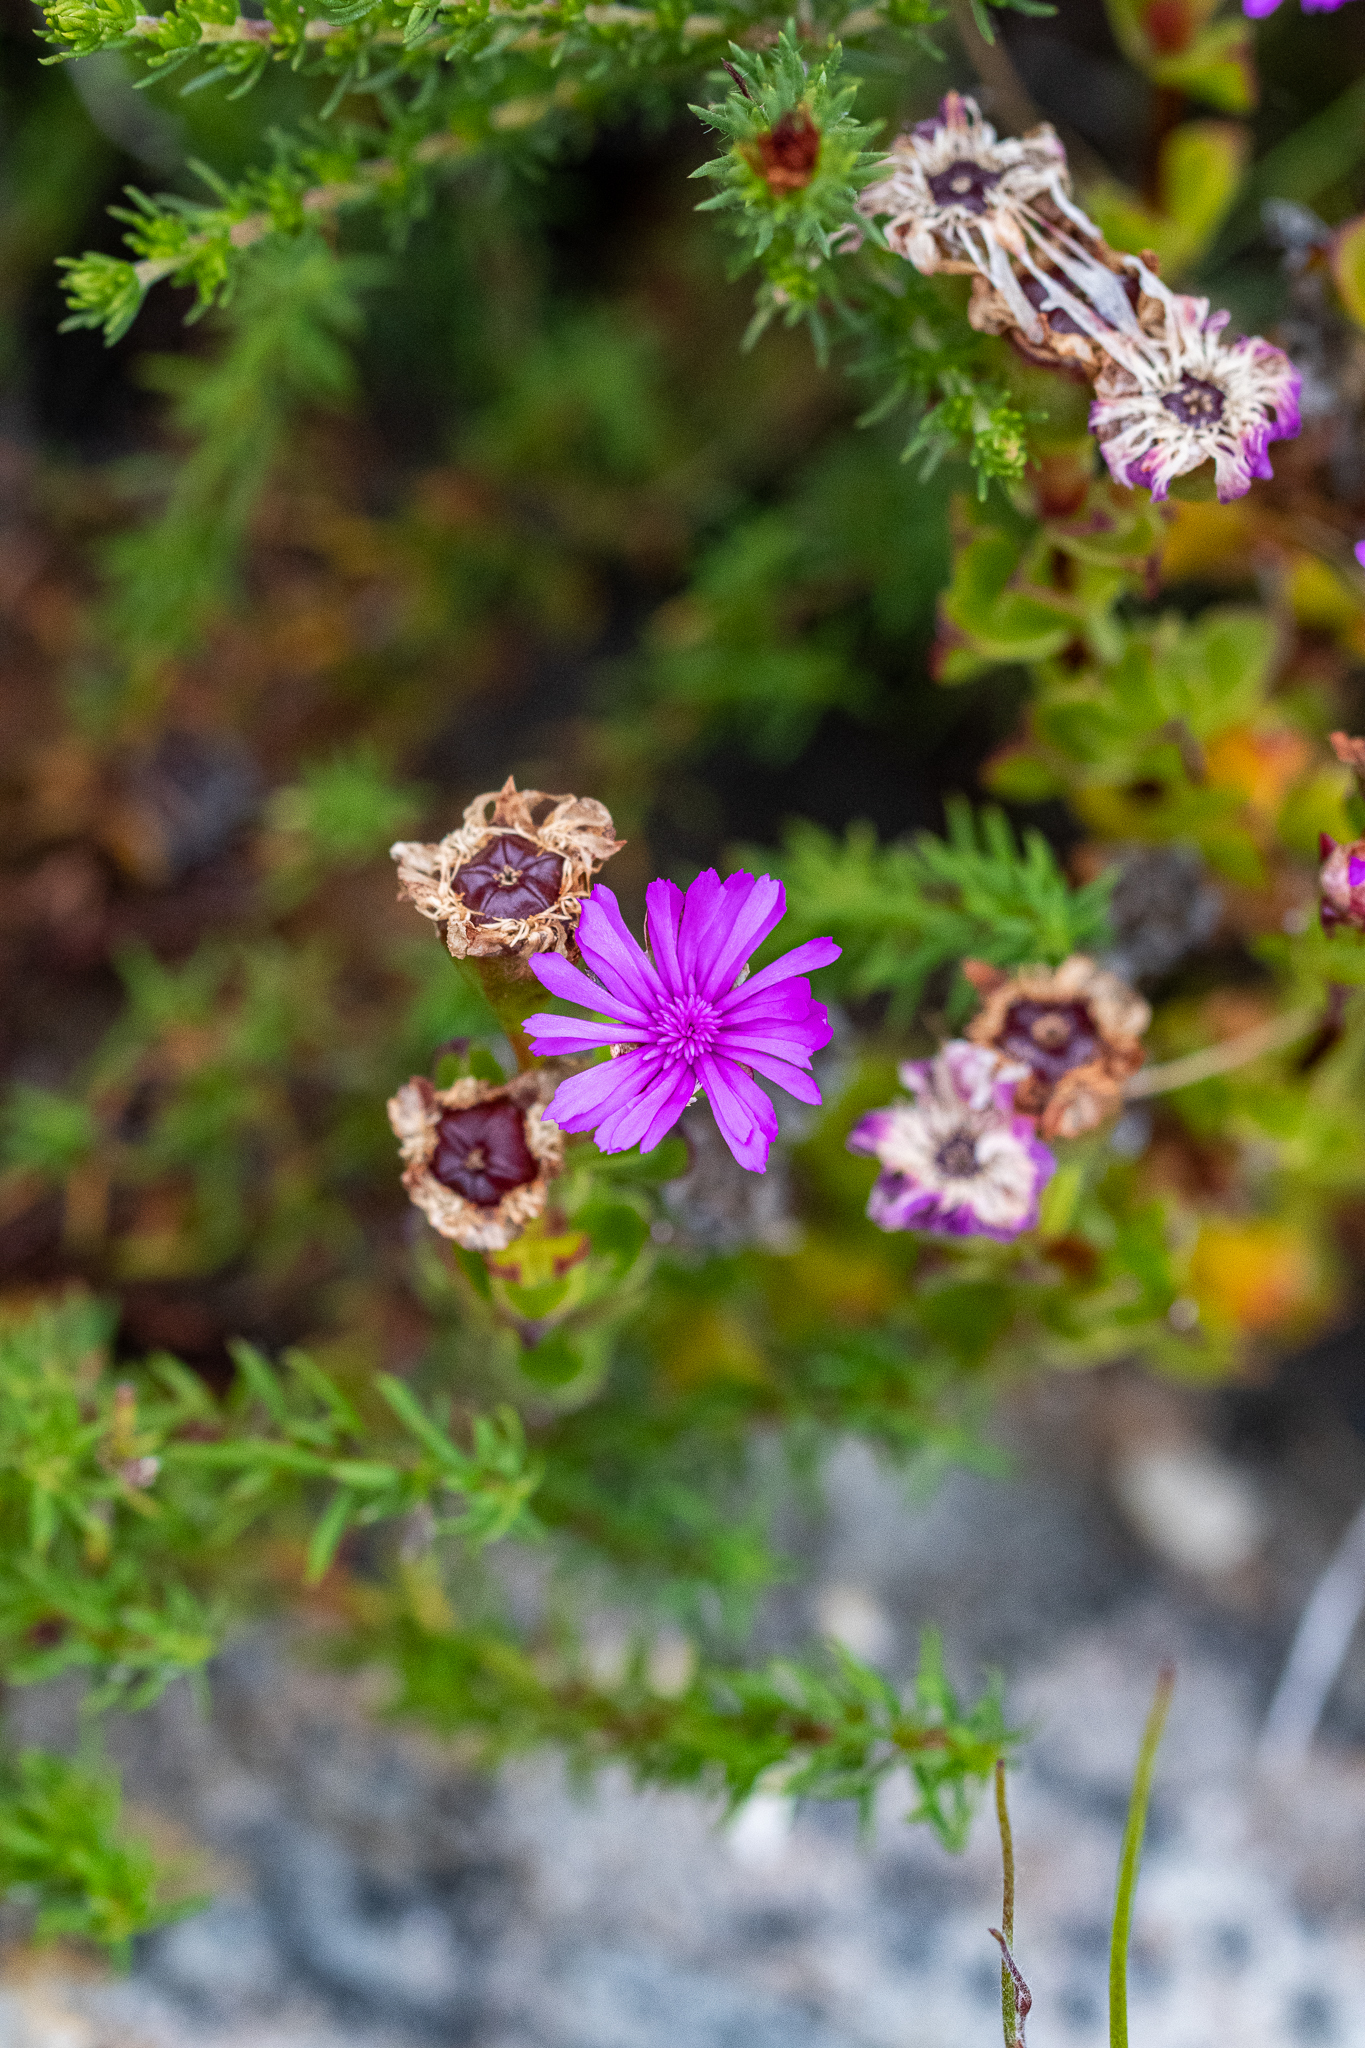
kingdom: Plantae
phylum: Tracheophyta
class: Magnoliopsida
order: Caryophyllales
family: Aizoaceae
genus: Erepsia
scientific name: Erepsia inclaudens
